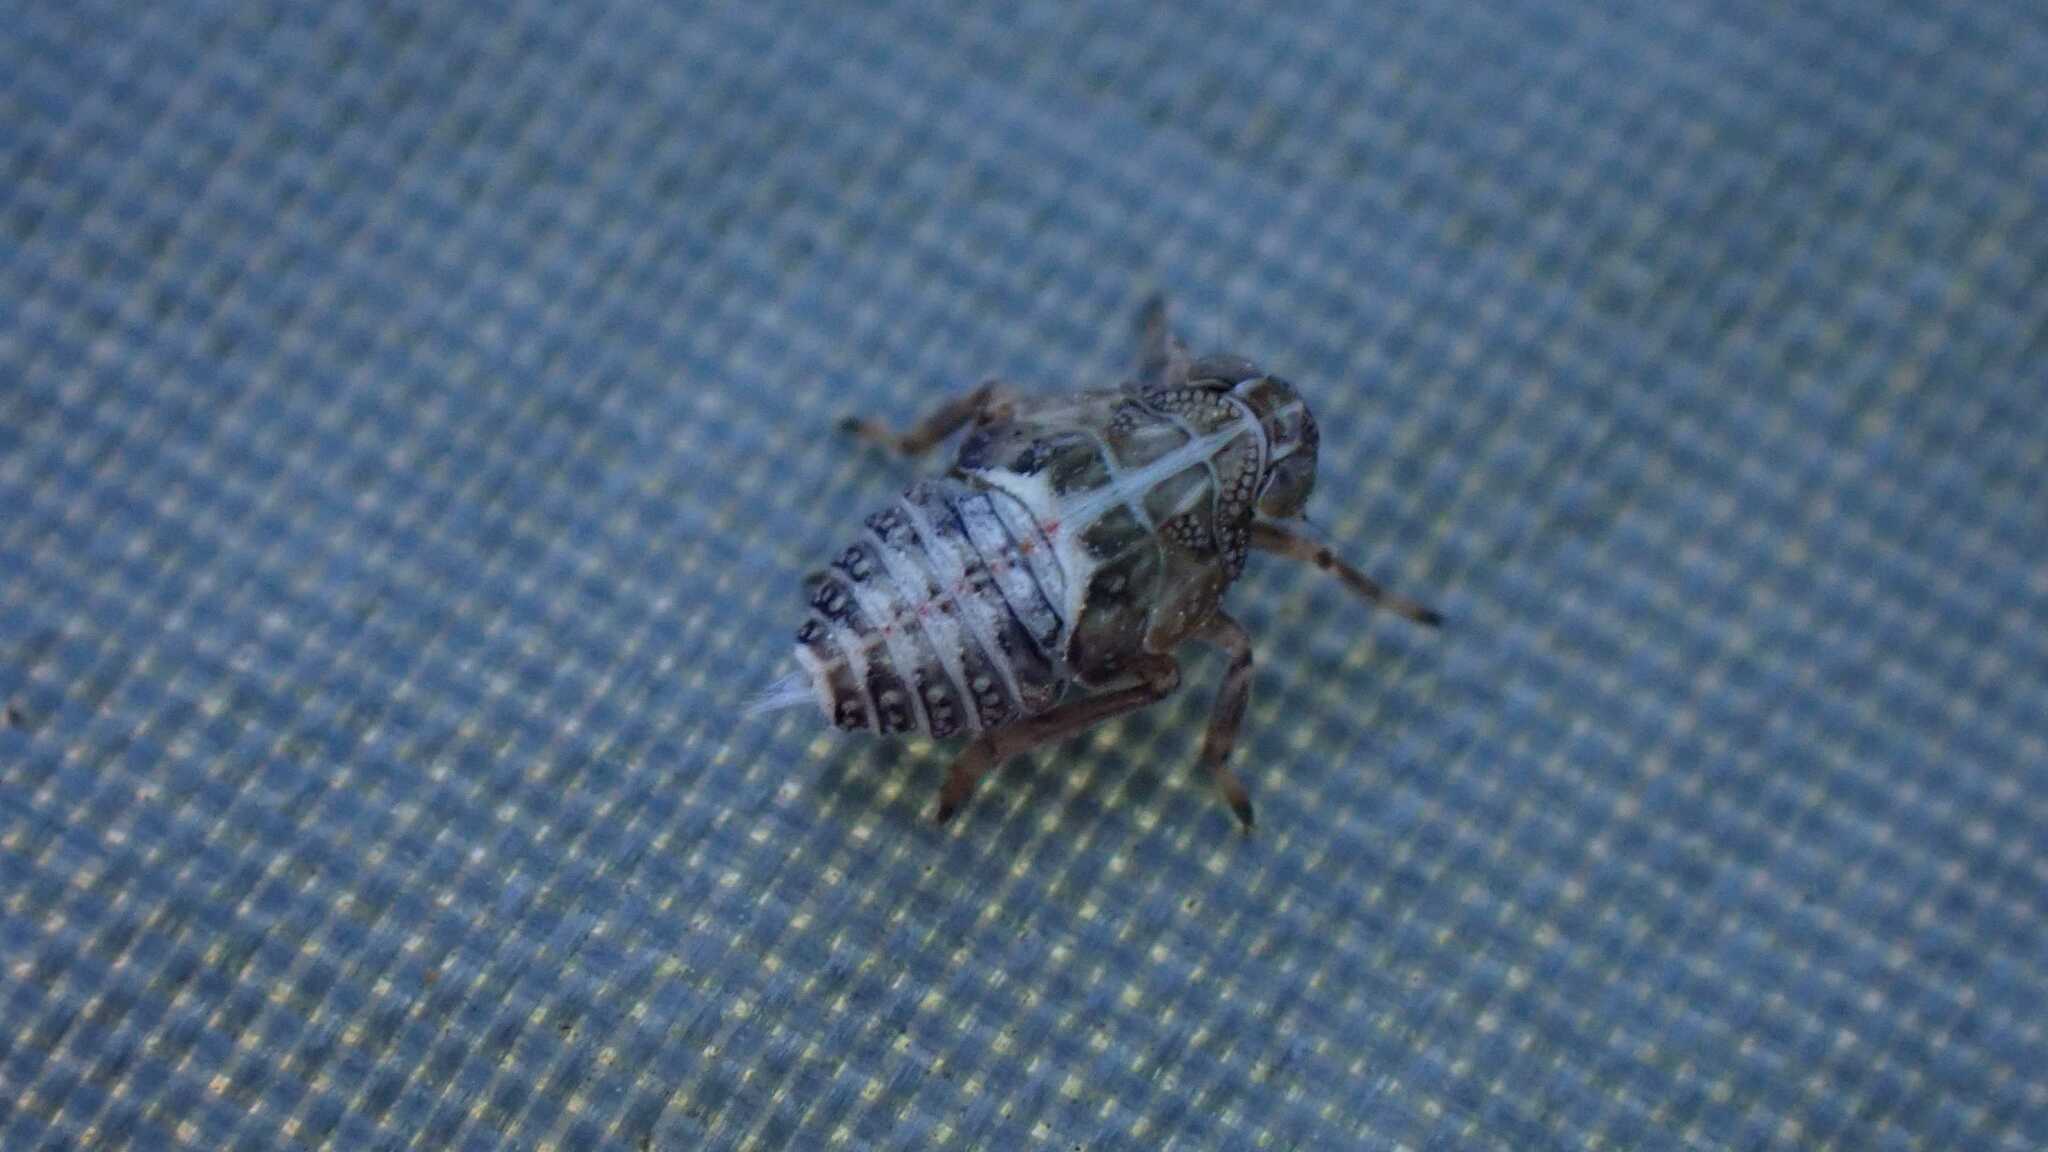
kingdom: Animalia
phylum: Arthropoda
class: Insecta
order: Hemiptera
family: Issidae
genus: Issus
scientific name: Issus
